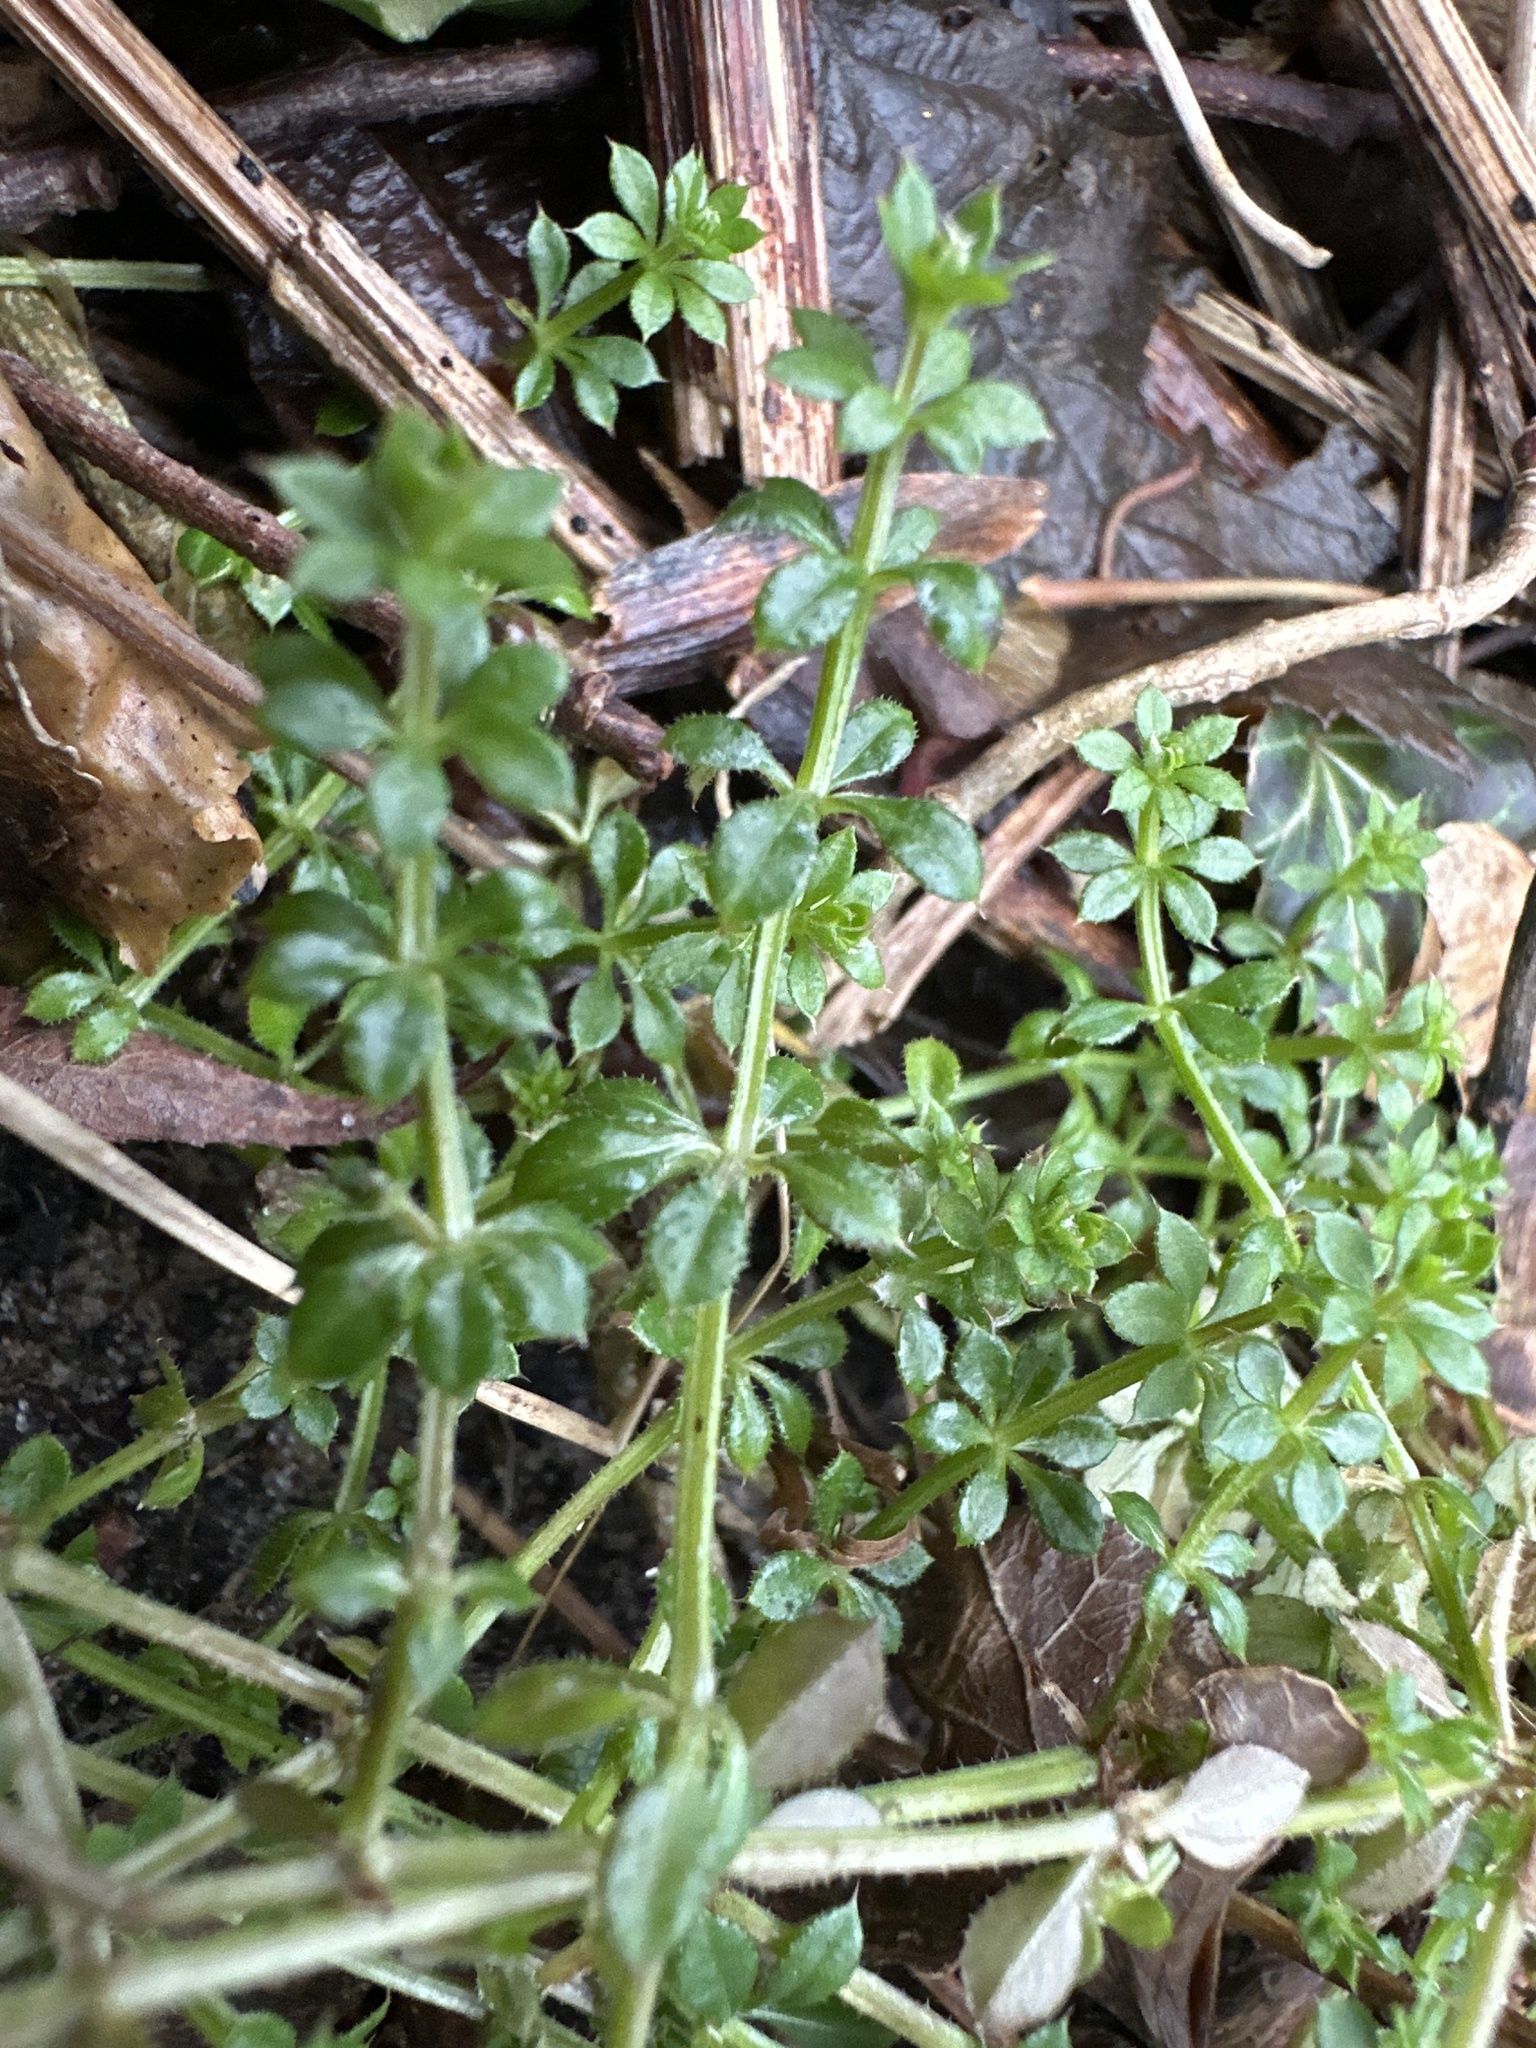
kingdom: Plantae
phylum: Tracheophyta
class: Magnoliopsida
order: Gentianales
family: Rubiaceae
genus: Galium
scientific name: Galium aparine
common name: Cleavers
